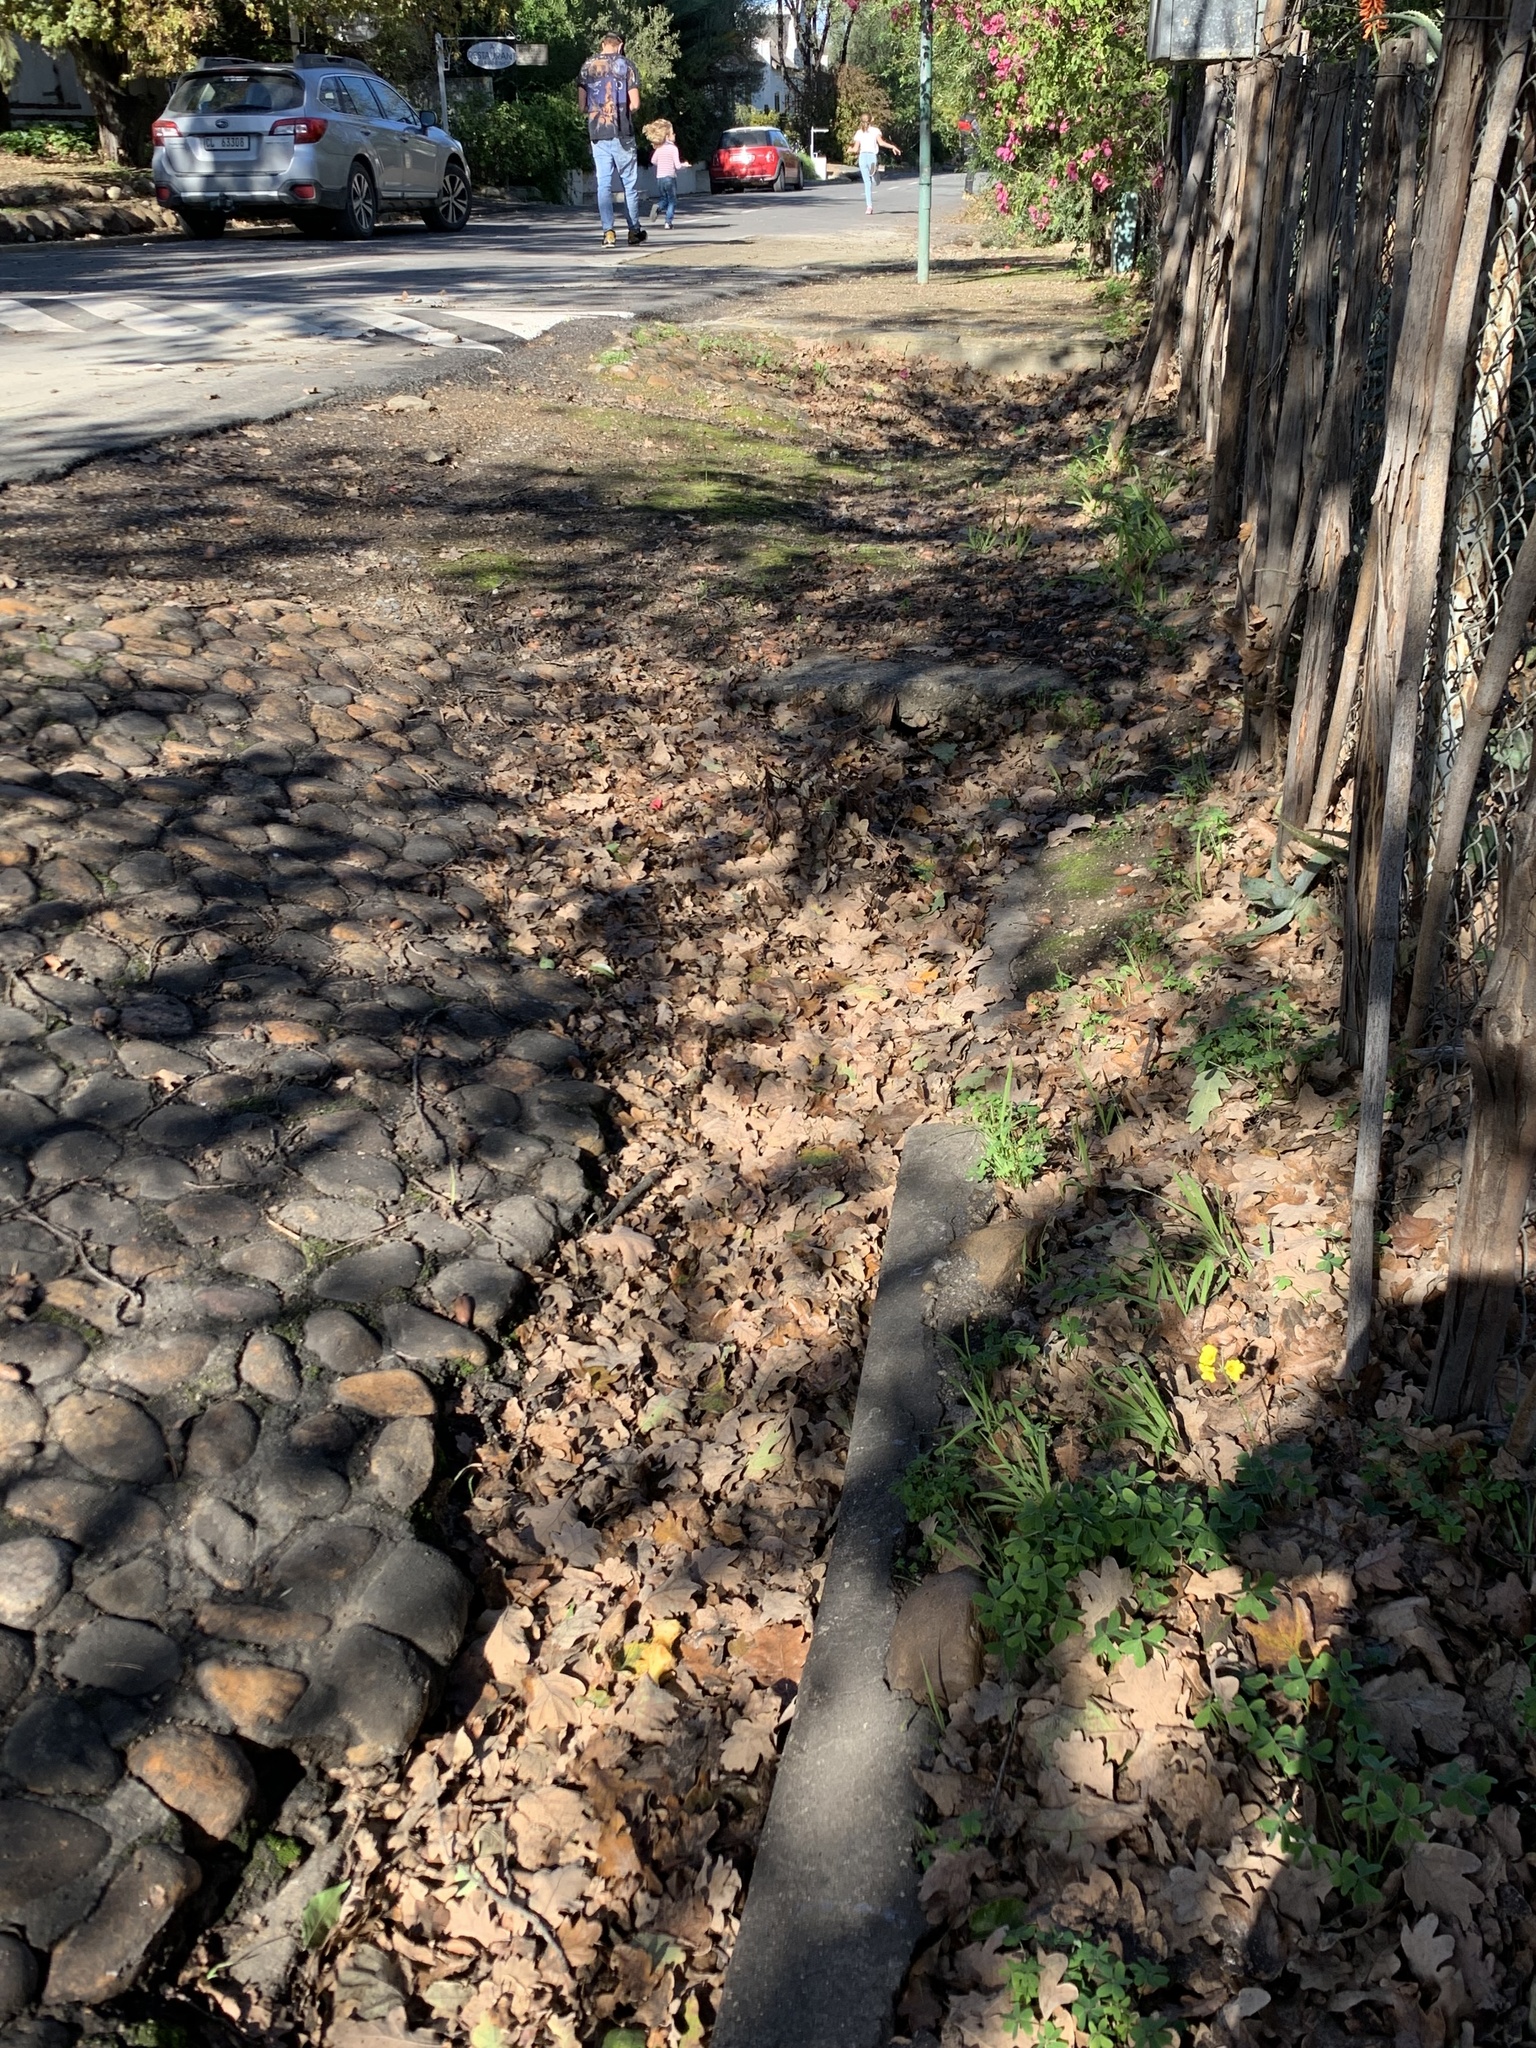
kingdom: Plantae
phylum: Tracheophyta
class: Magnoliopsida
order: Oxalidales
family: Oxalidaceae
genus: Oxalis
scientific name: Oxalis pes-caprae
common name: Bermuda-buttercup
